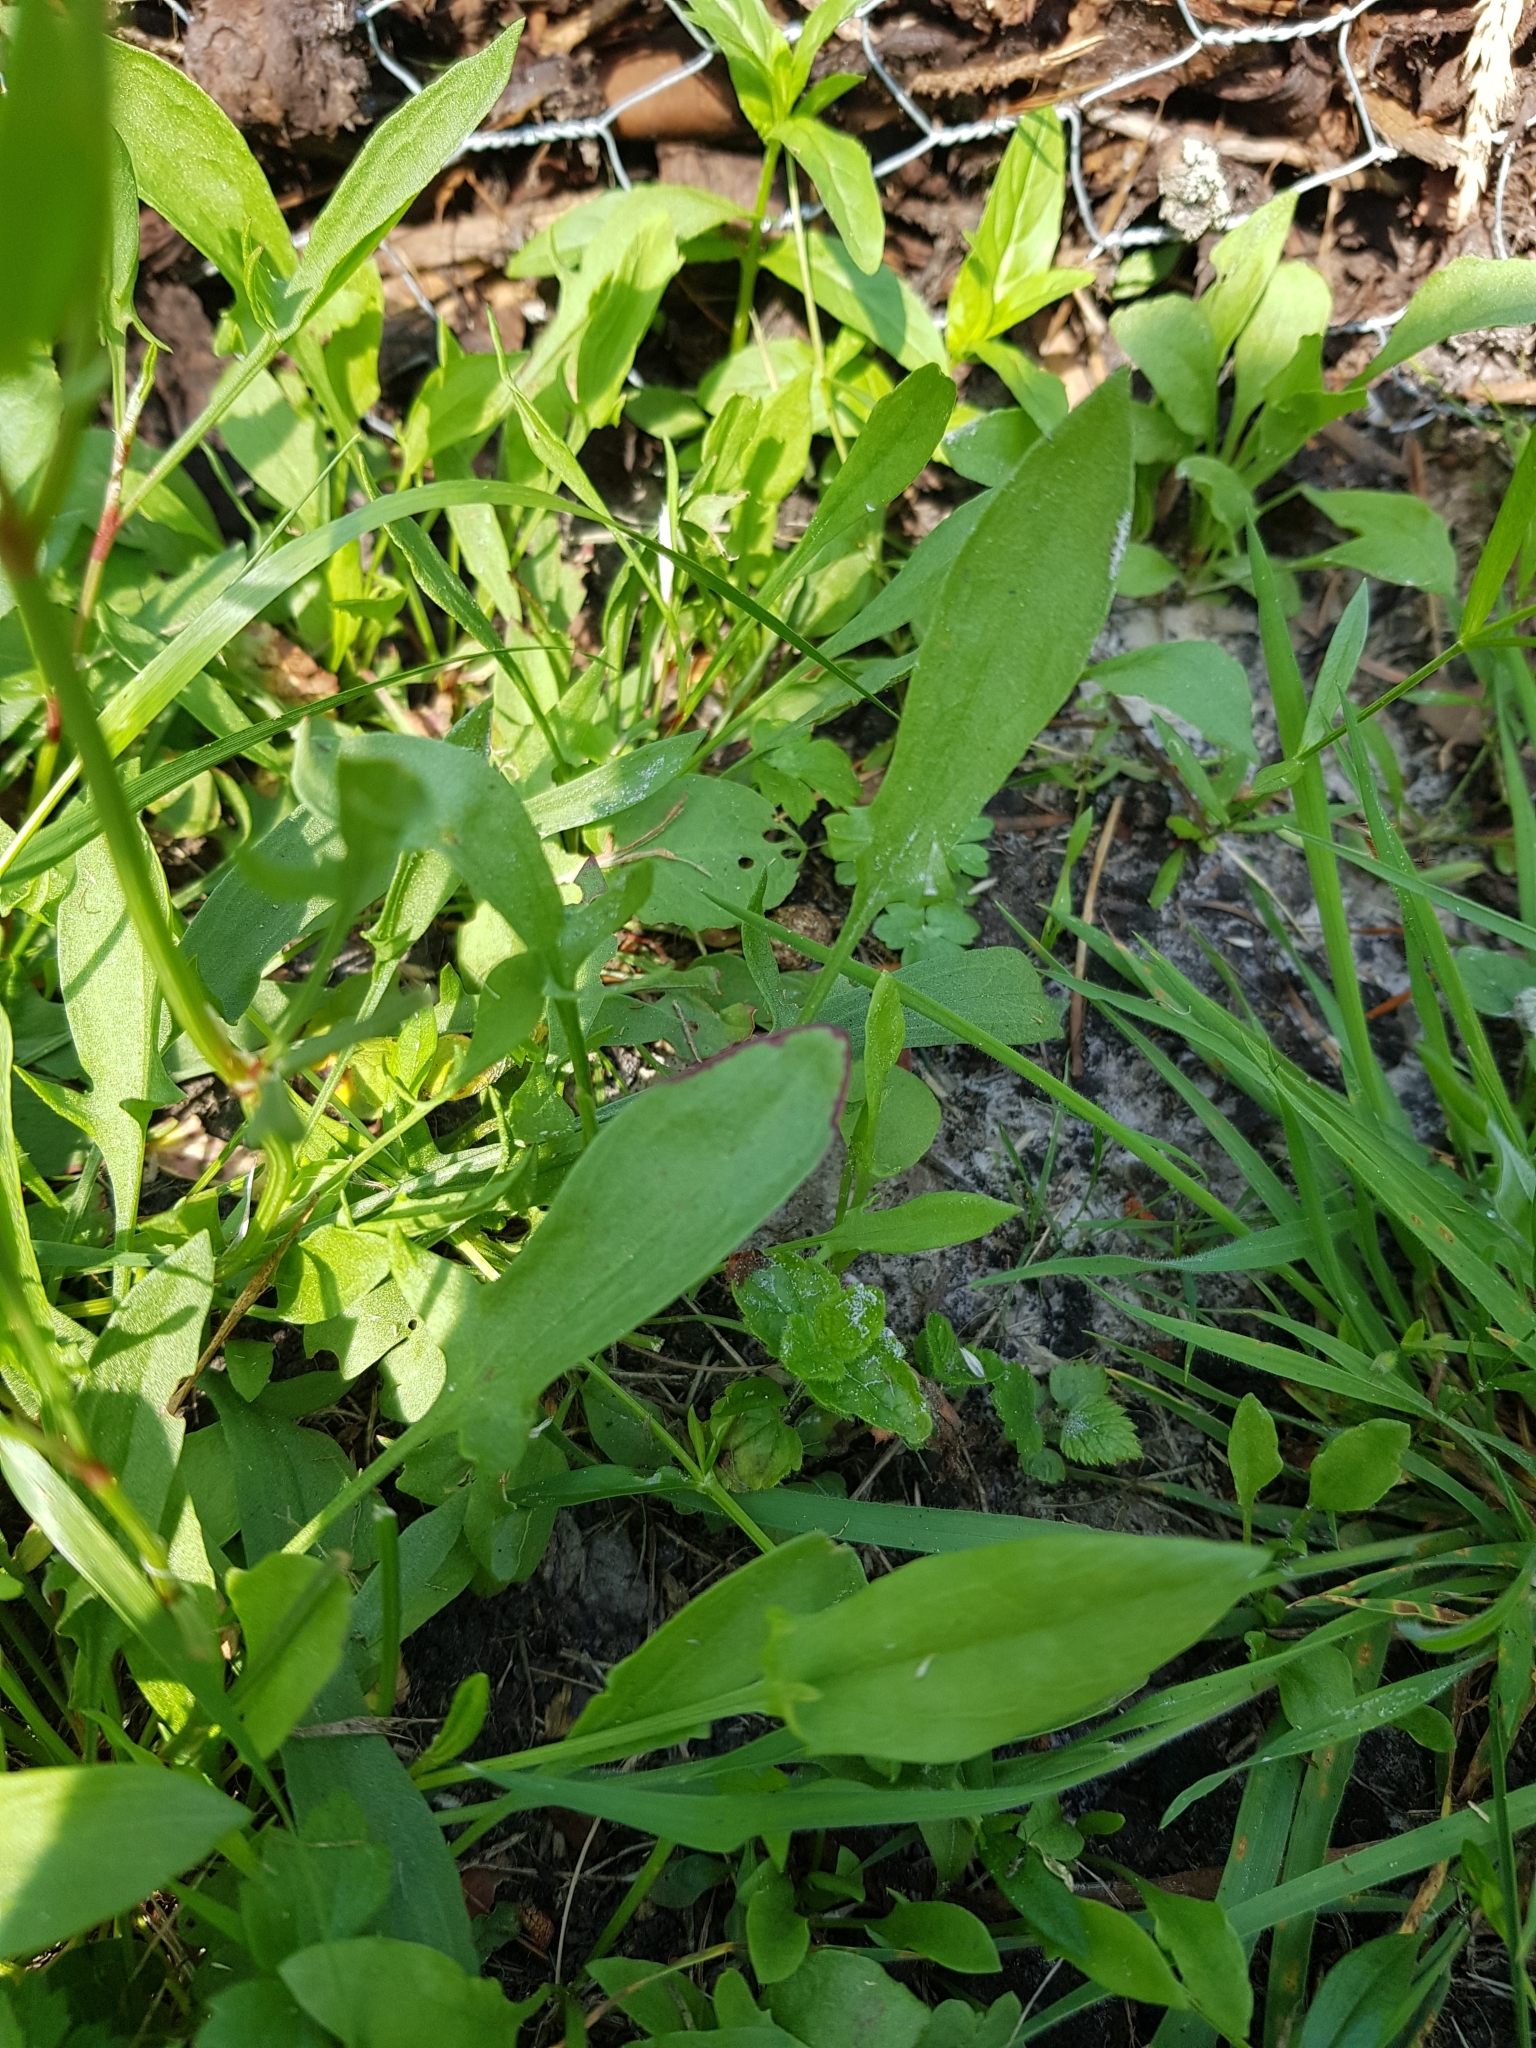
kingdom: Plantae
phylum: Tracheophyta
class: Magnoliopsida
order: Caryophyllales
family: Polygonaceae
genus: Rumex
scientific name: Rumex acetosella
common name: Common sheep sorrel
